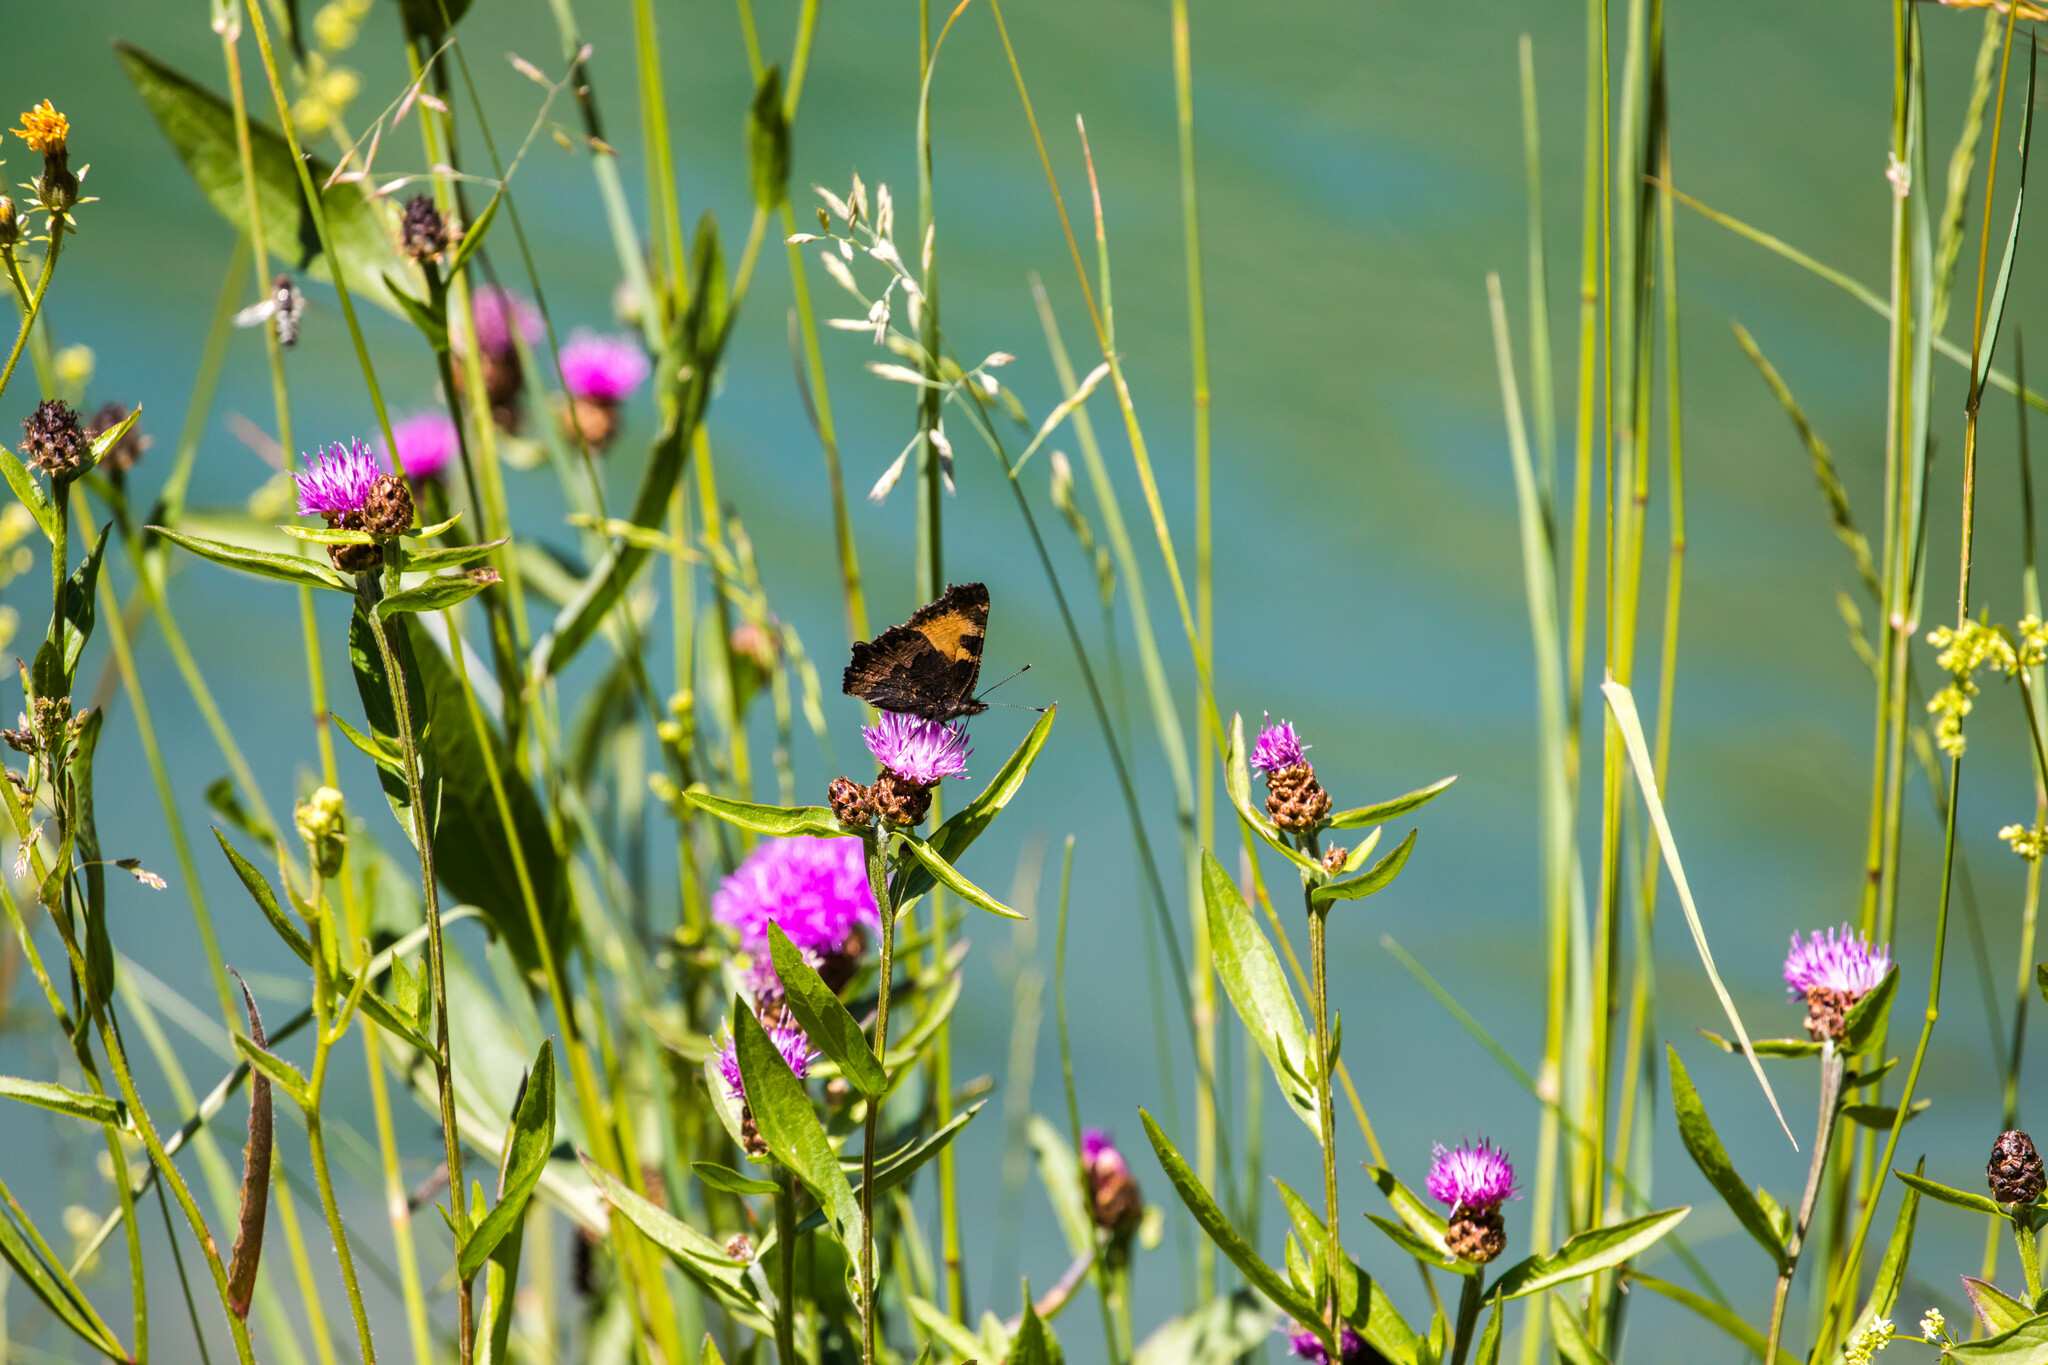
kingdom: Animalia
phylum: Arthropoda
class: Insecta
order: Lepidoptera
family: Nymphalidae
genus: Aglais
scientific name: Aglais urticae
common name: Small tortoiseshell
